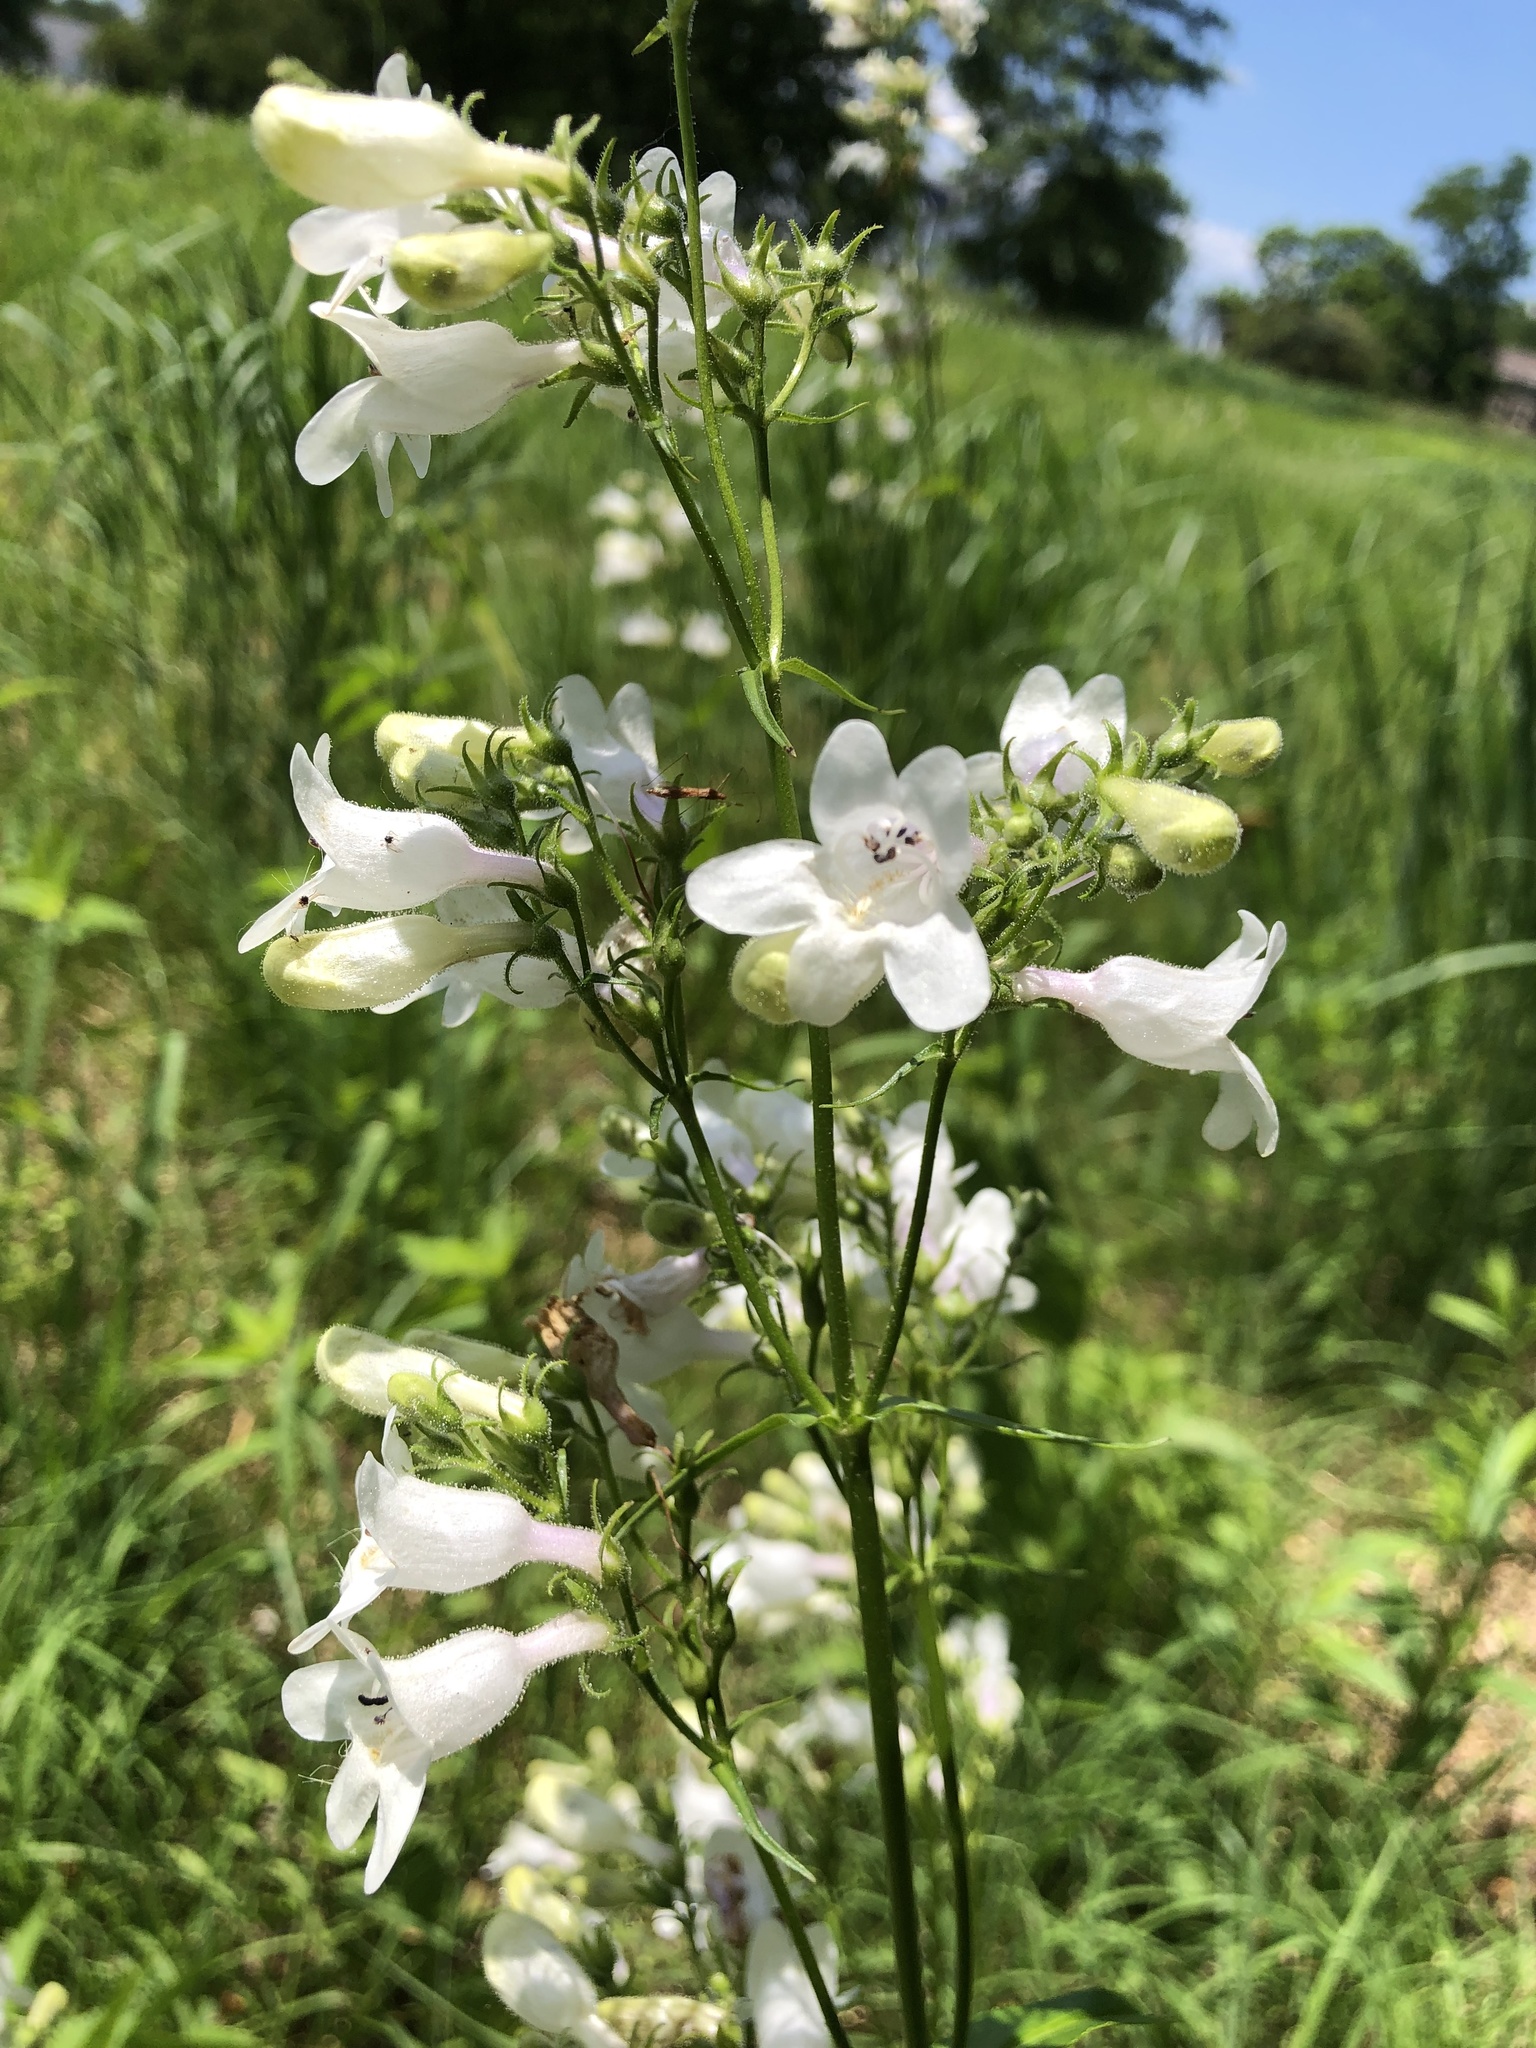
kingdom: Plantae
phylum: Tracheophyta
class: Magnoliopsida
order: Lamiales
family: Plantaginaceae
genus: Penstemon
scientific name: Penstemon digitalis
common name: Foxglove beardtongue
